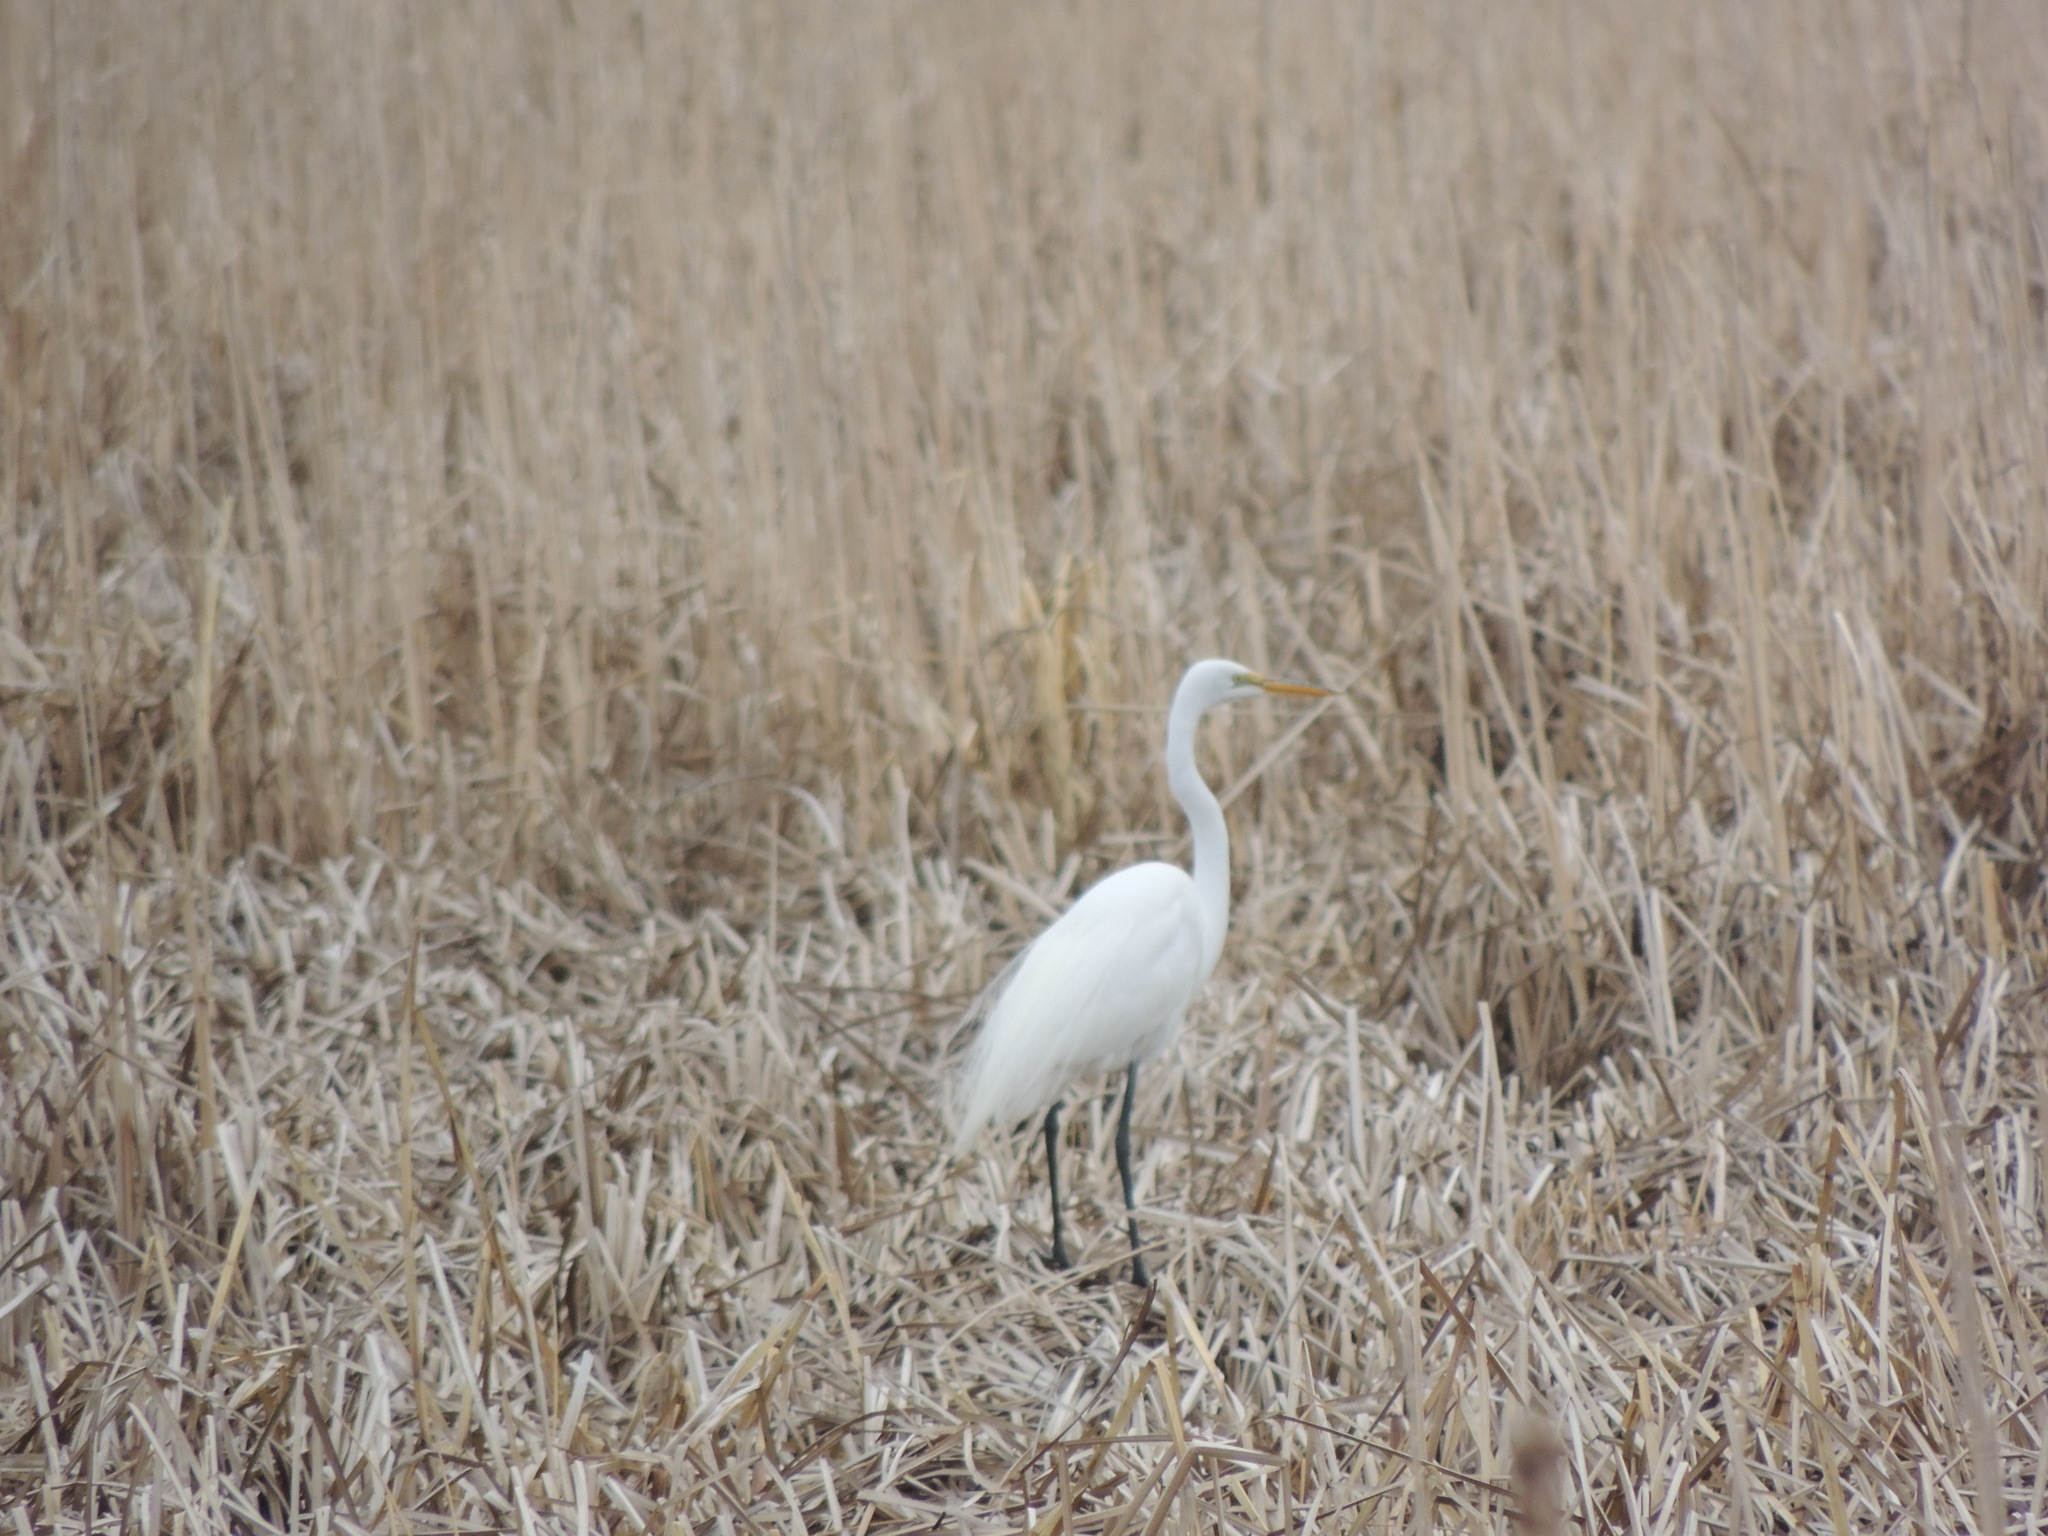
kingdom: Animalia
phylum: Chordata
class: Aves
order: Pelecaniformes
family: Ardeidae
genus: Ardea
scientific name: Ardea alba
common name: Great egret
